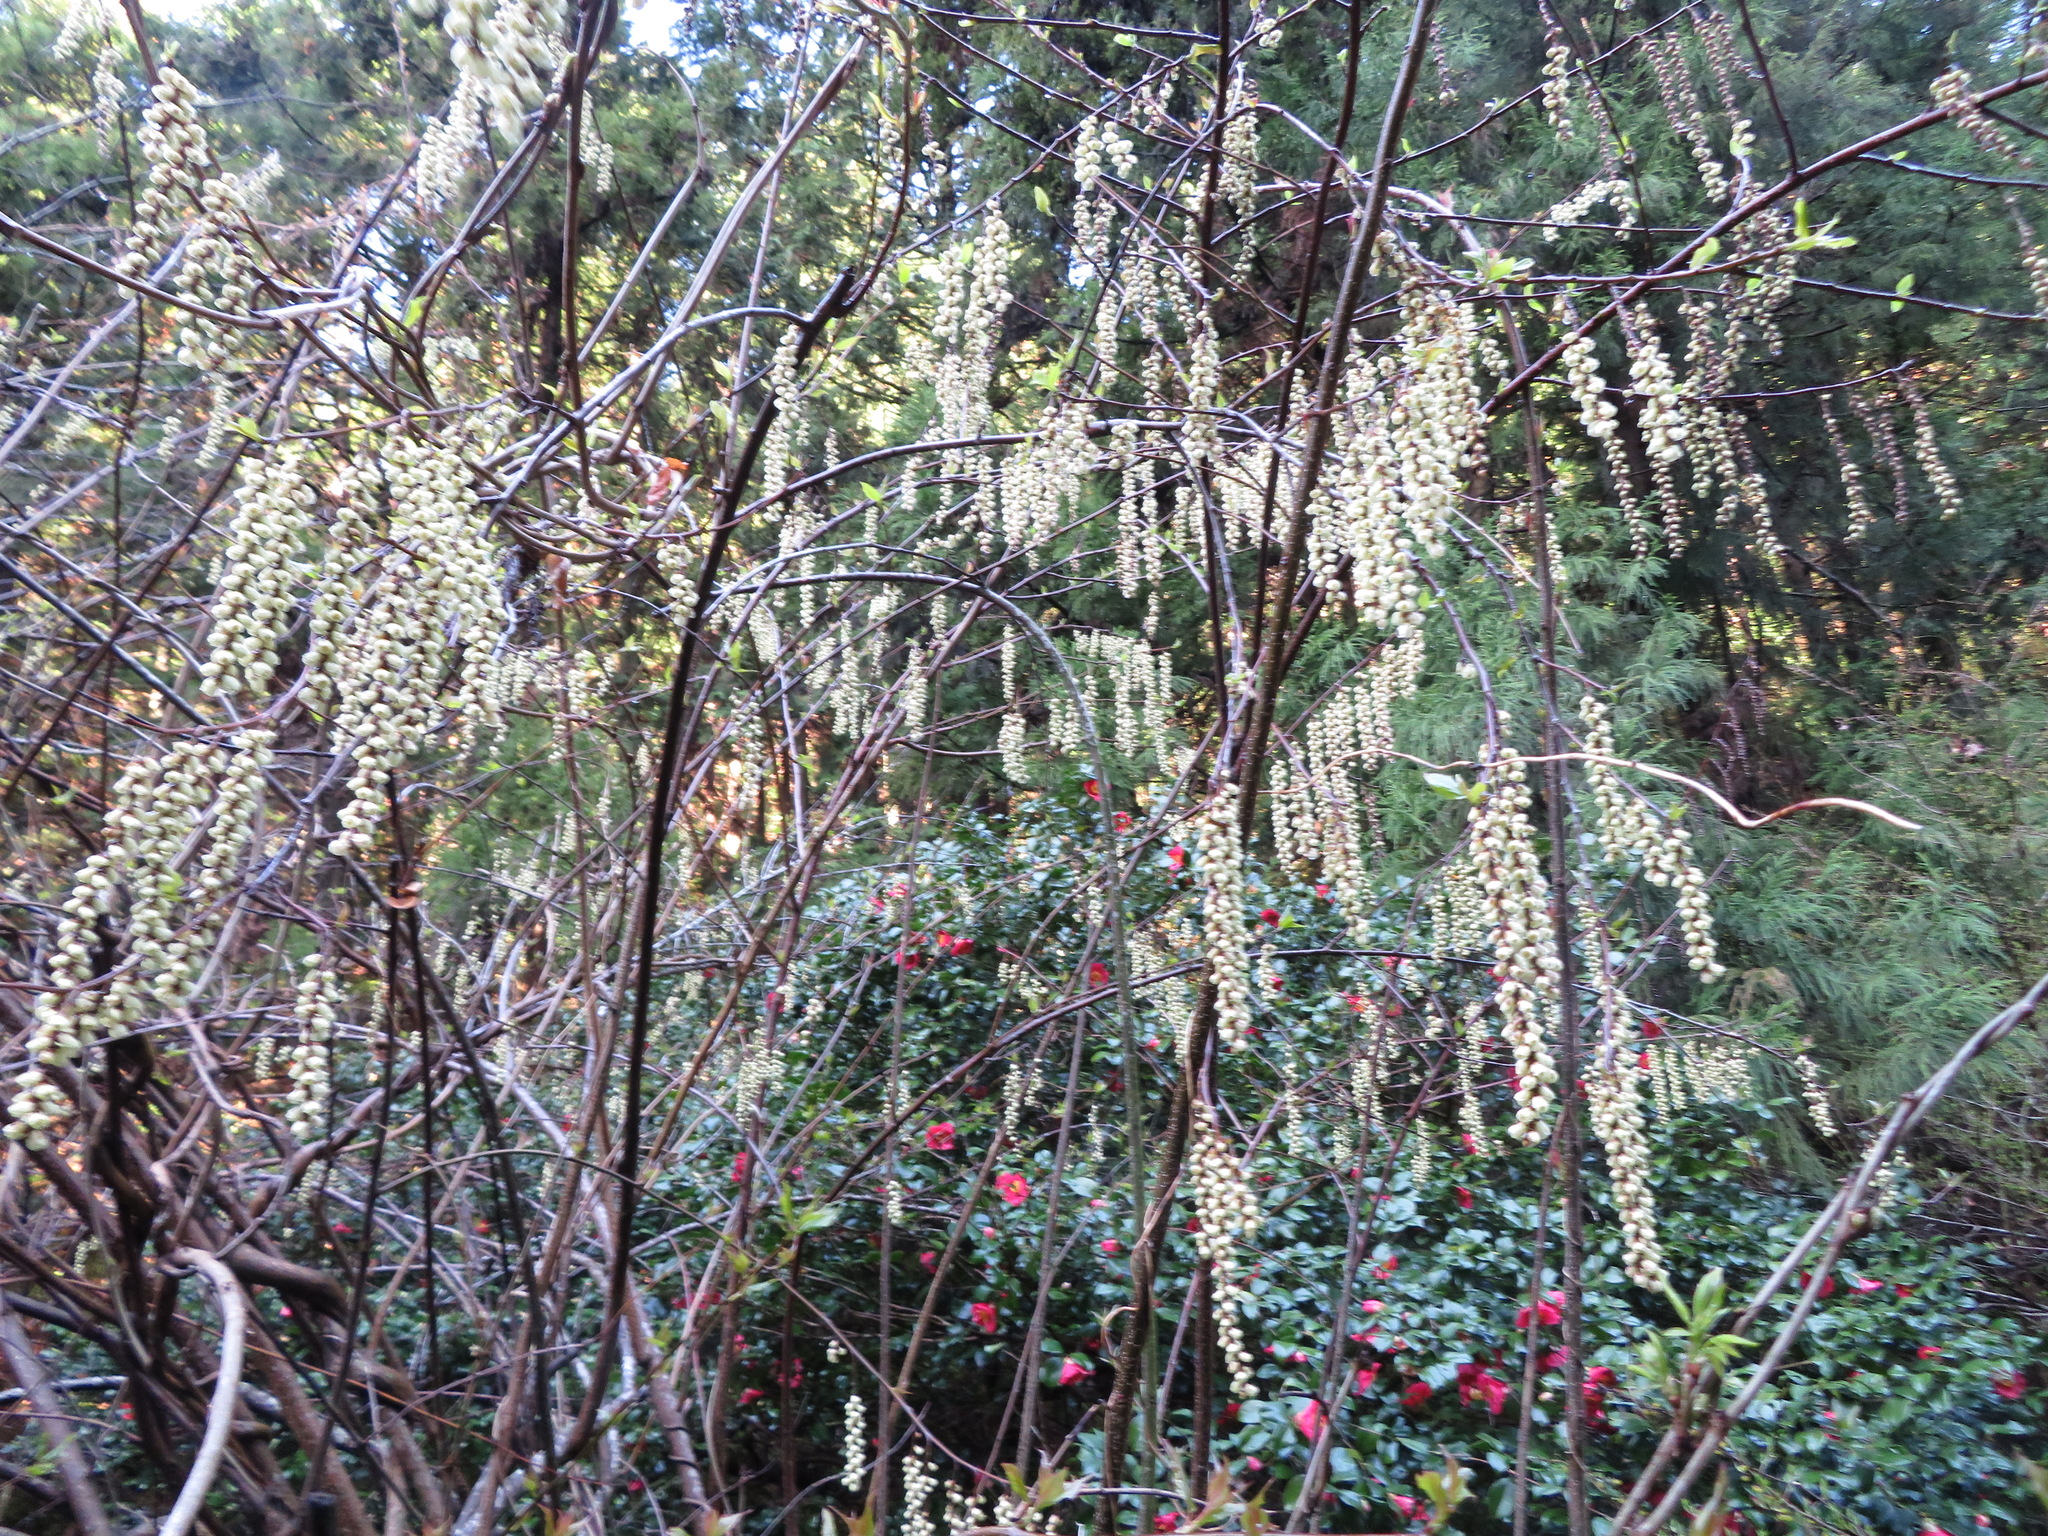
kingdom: Plantae
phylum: Tracheophyta
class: Magnoliopsida
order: Crossosomatales
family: Stachyuraceae
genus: Stachyurus
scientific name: Stachyurus praecox
